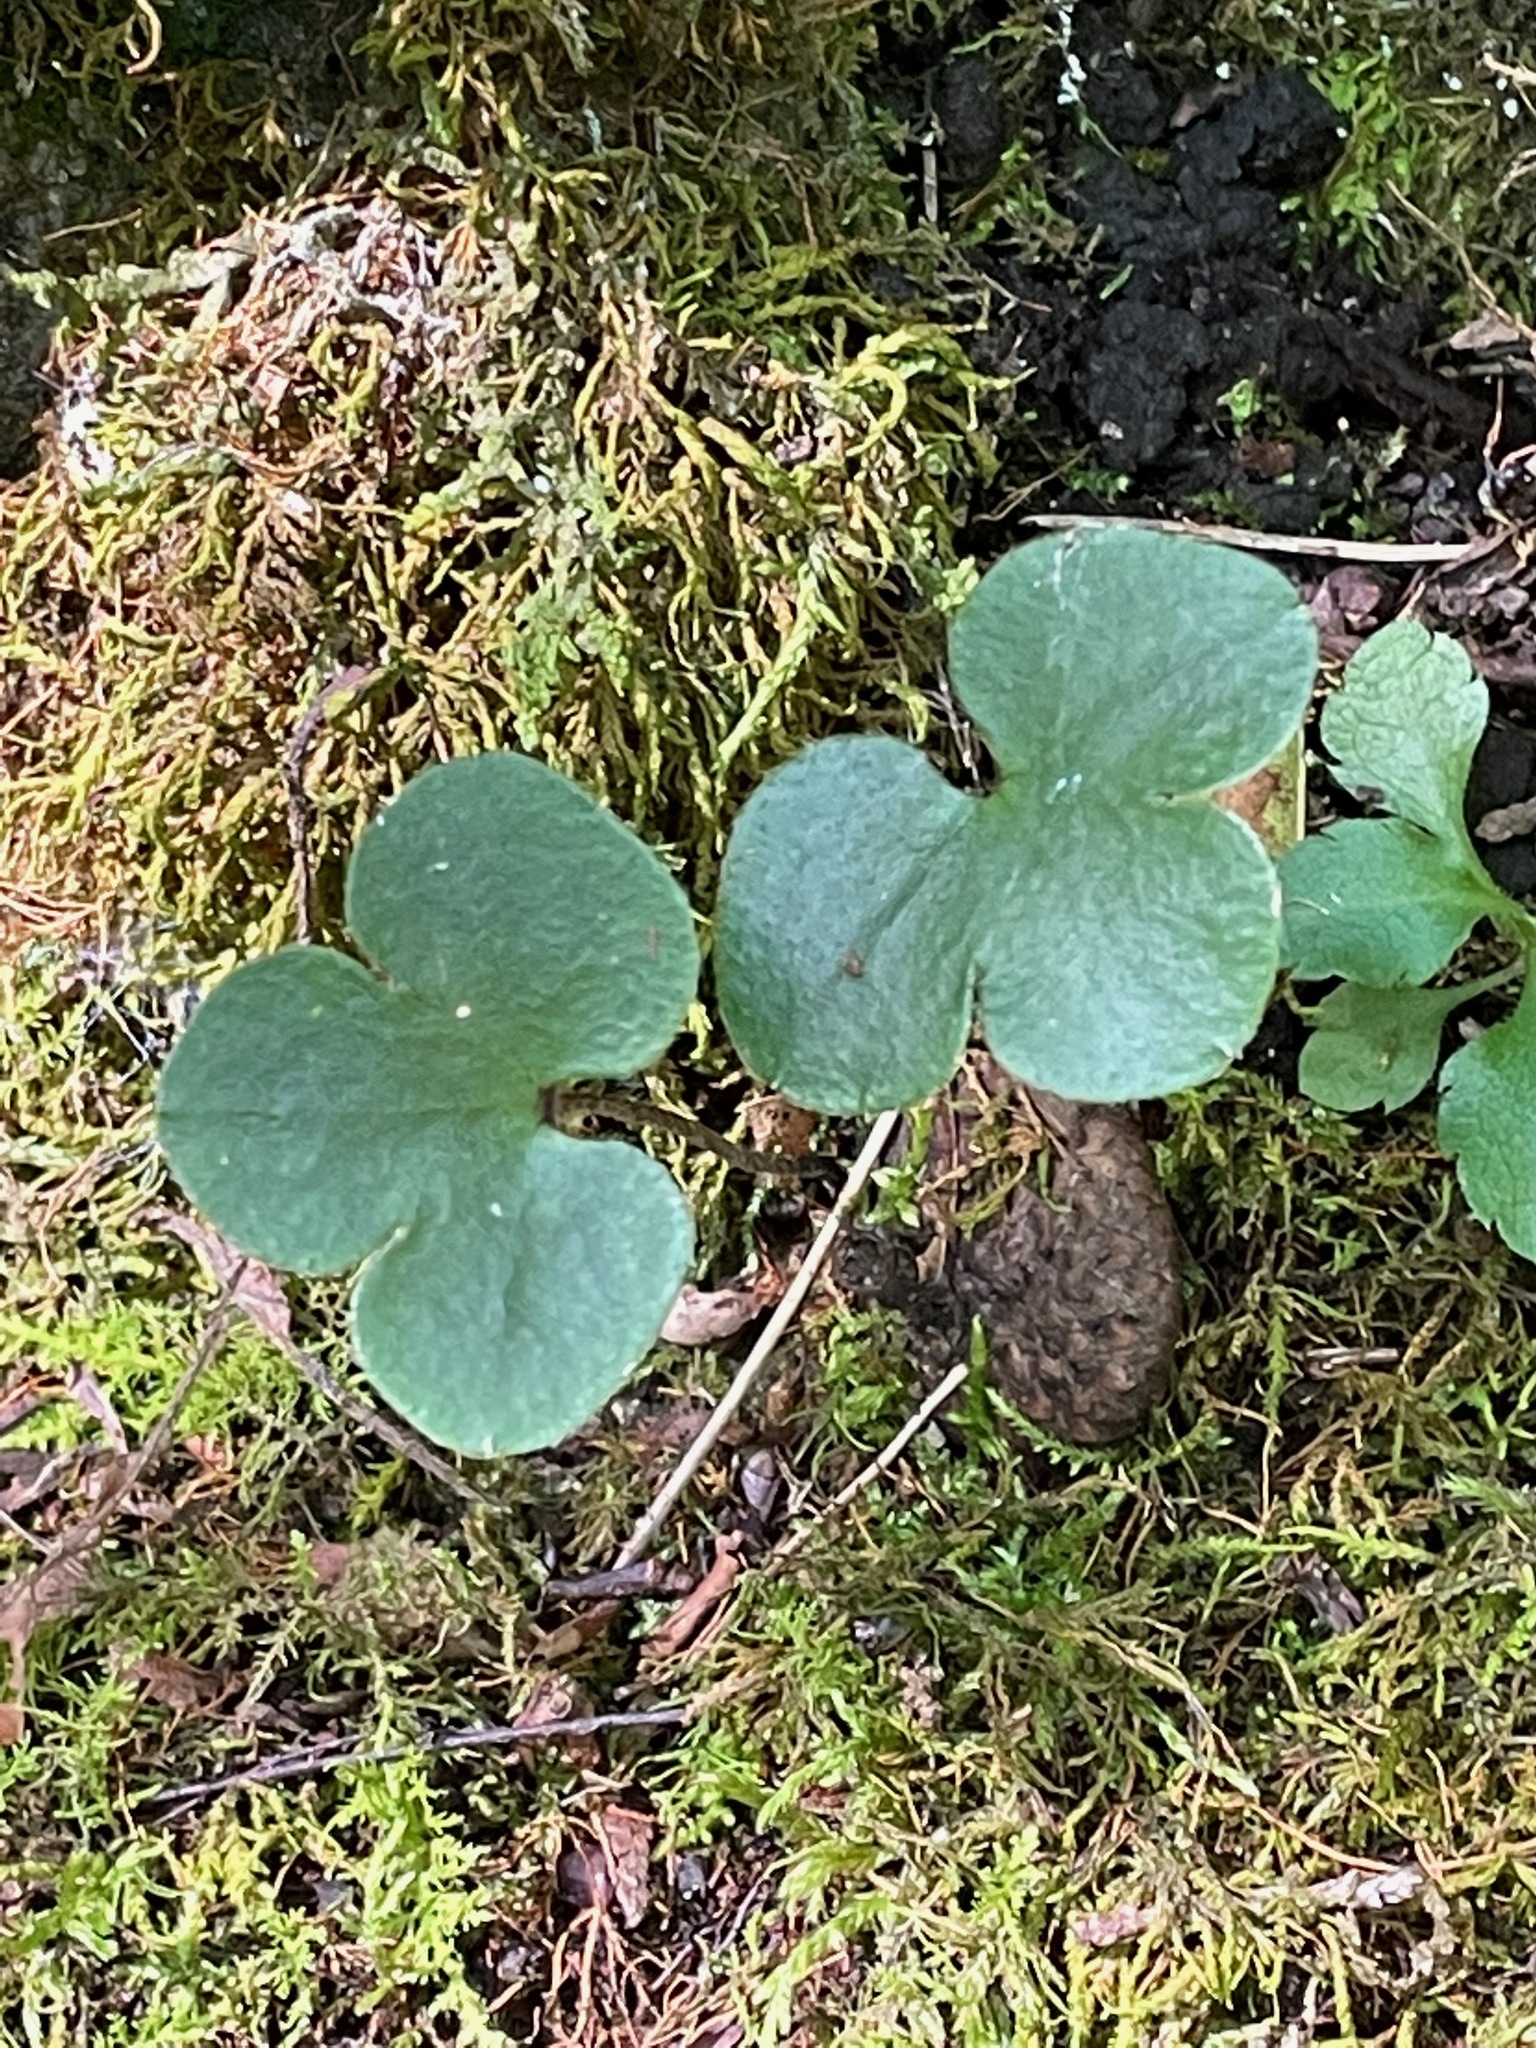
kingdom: Plantae
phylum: Tracheophyta
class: Magnoliopsida
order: Ranunculales
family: Ranunculaceae
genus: Hepatica
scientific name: Hepatica americana
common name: American hepatica
